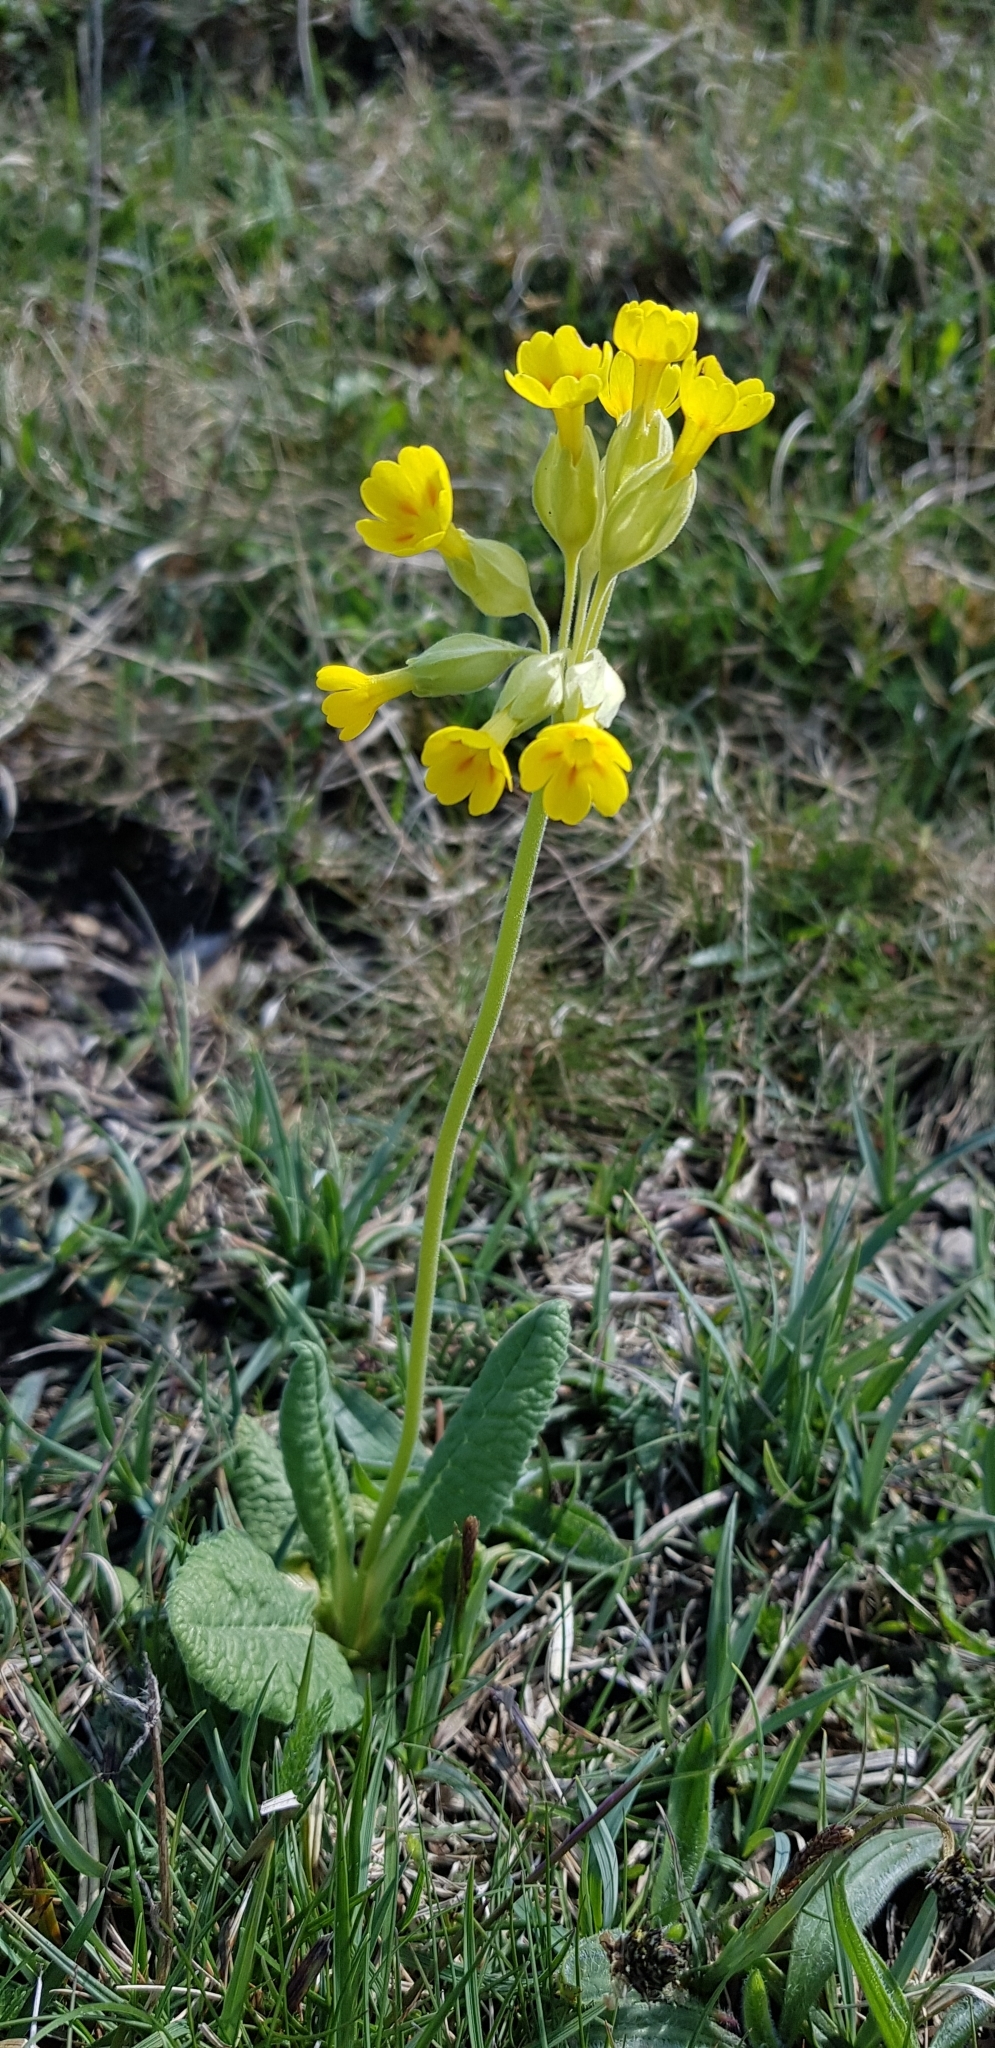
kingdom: Plantae
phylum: Tracheophyta
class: Magnoliopsida
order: Ericales
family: Primulaceae
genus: Primula
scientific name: Primula veris
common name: Cowslip
